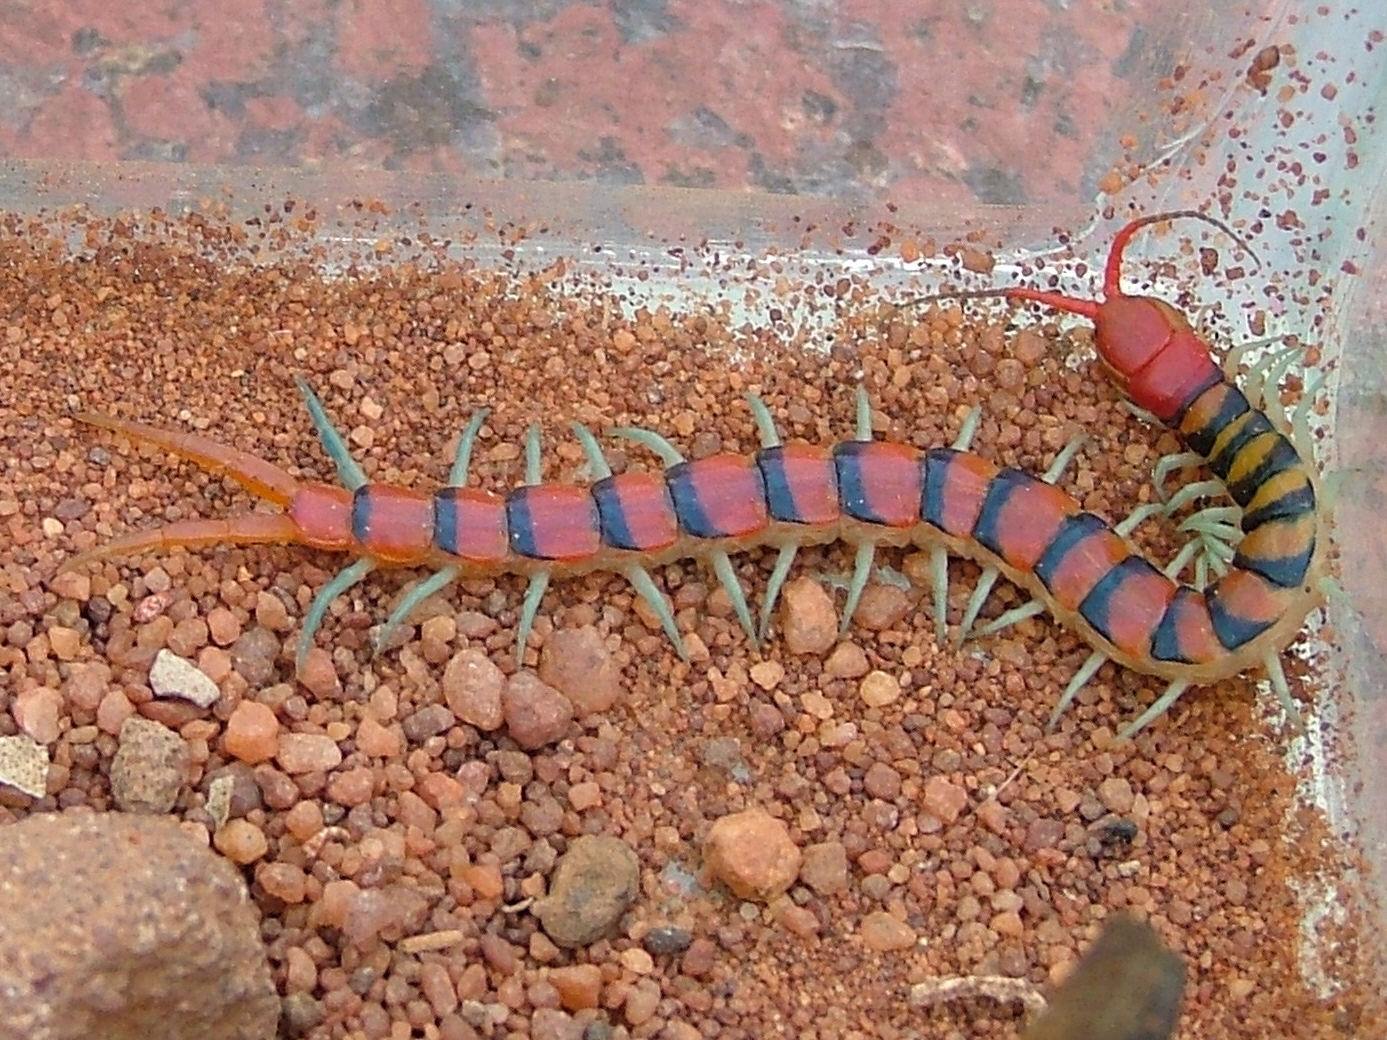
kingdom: Animalia
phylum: Arthropoda
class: Chilopoda
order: Scolopendromorpha
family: Scolopendridae
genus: Scolopendra
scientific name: Scolopendra morsitans
